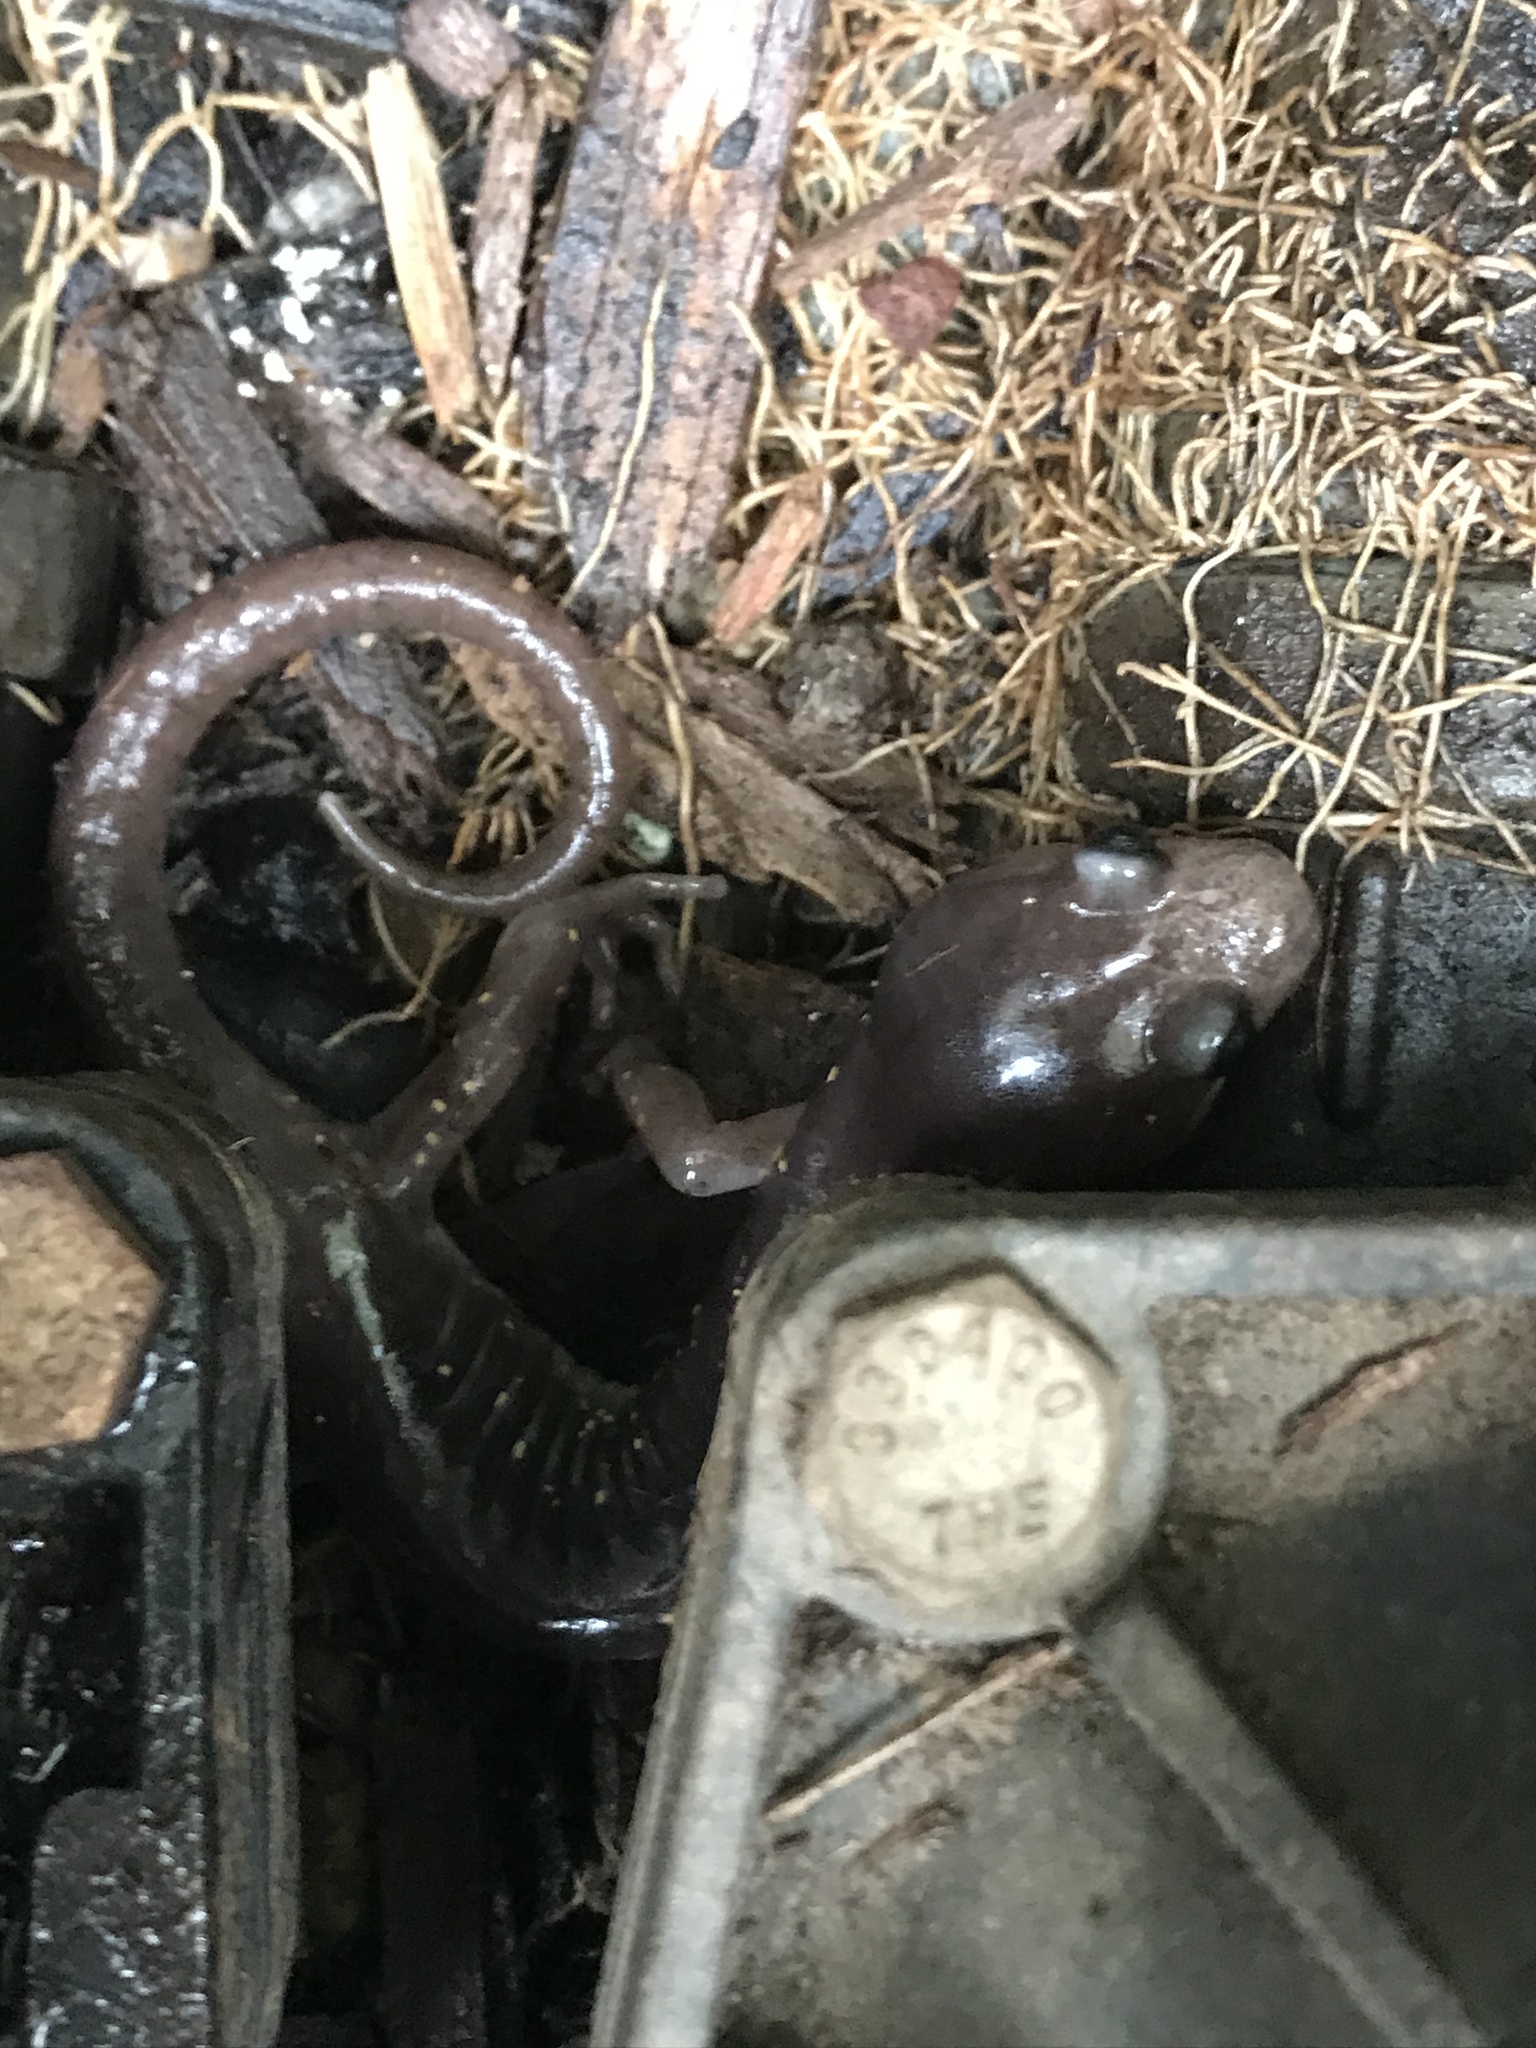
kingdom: Animalia
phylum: Chordata
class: Amphibia
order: Caudata
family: Plethodontidae
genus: Aneides
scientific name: Aneides lugubris
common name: Arboreal salamander
